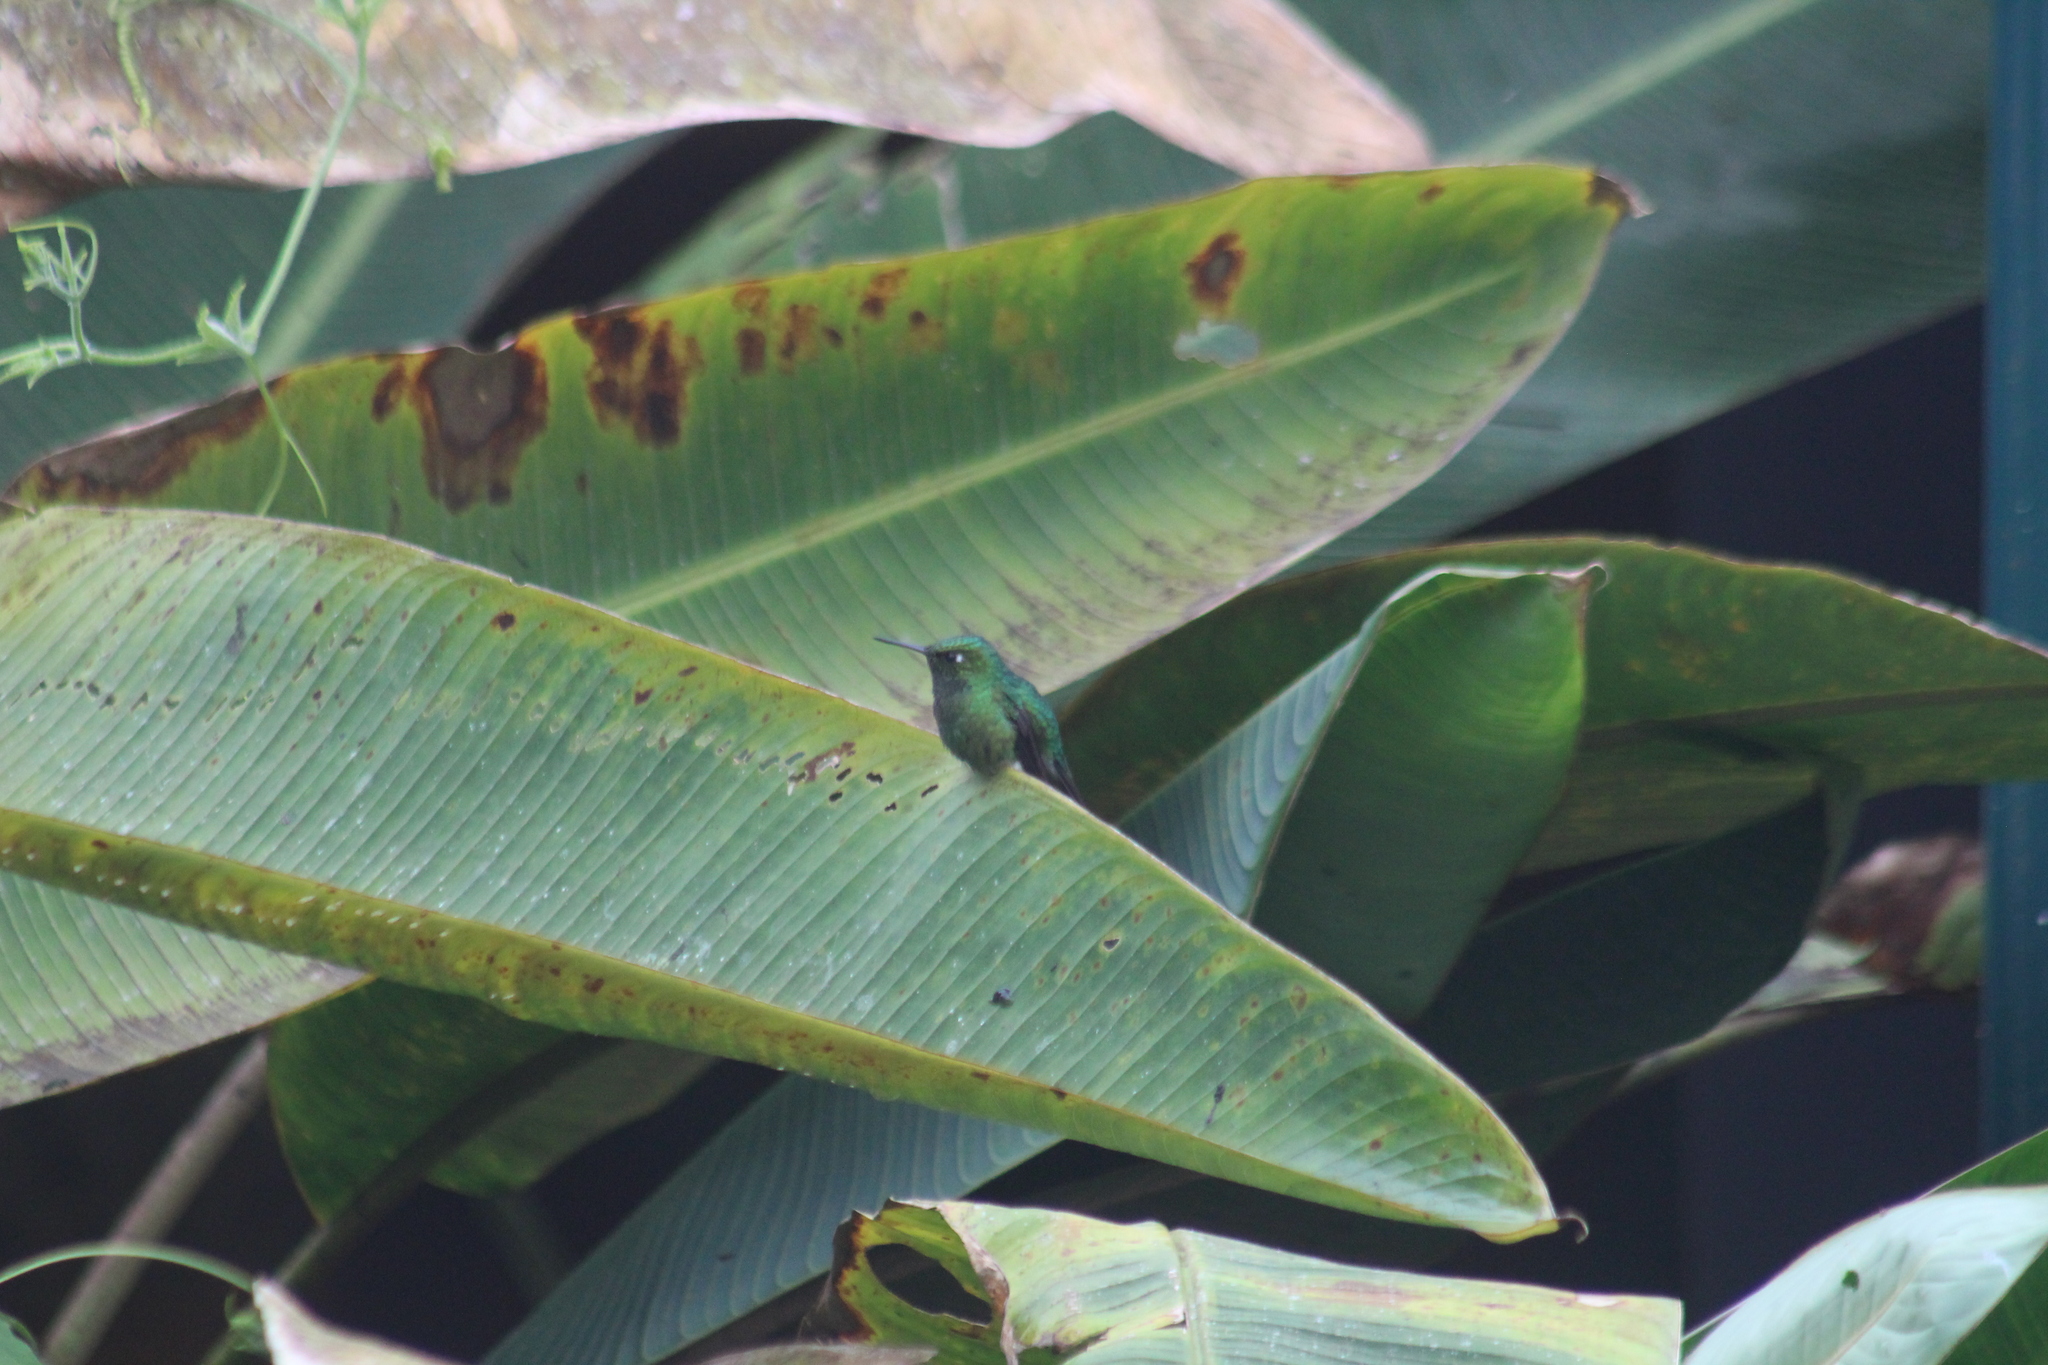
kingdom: Animalia
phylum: Chordata
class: Aves
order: Apodiformes
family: Trochilidae
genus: Ocreatus
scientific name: Ocreatus underwoodii
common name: Booted racket-tail
